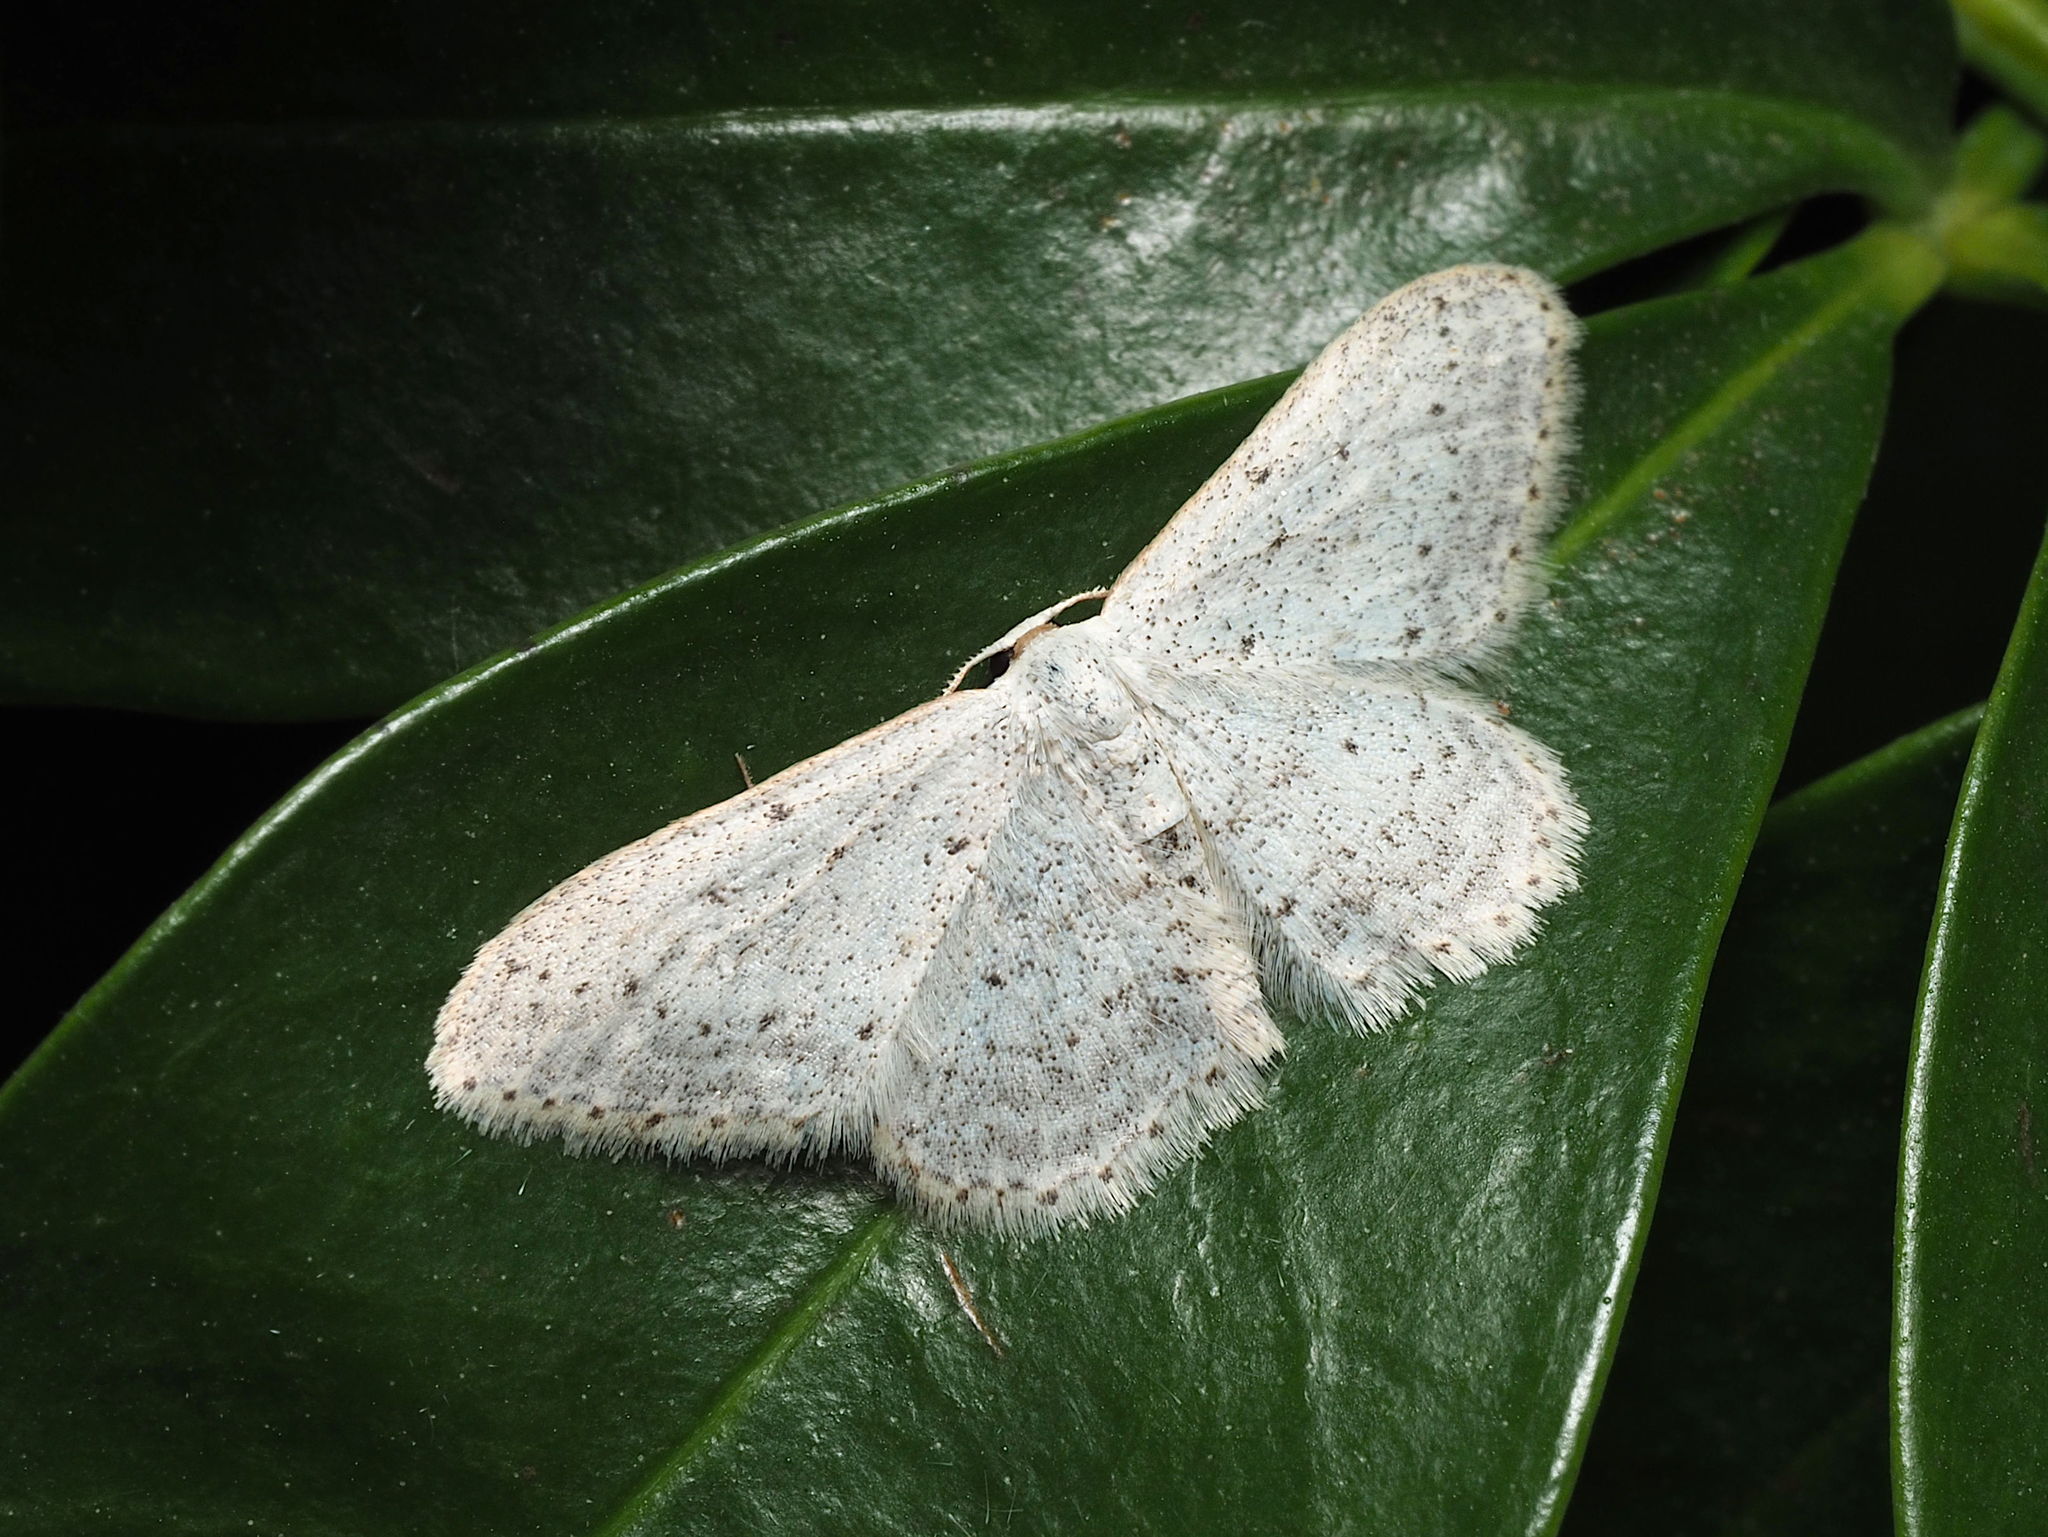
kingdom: Animalia
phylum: Arthropoda
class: Insecta
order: Lepidoptera
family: Geometridae
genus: Idaea
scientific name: Idaea seriata
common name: Small dusty wave
